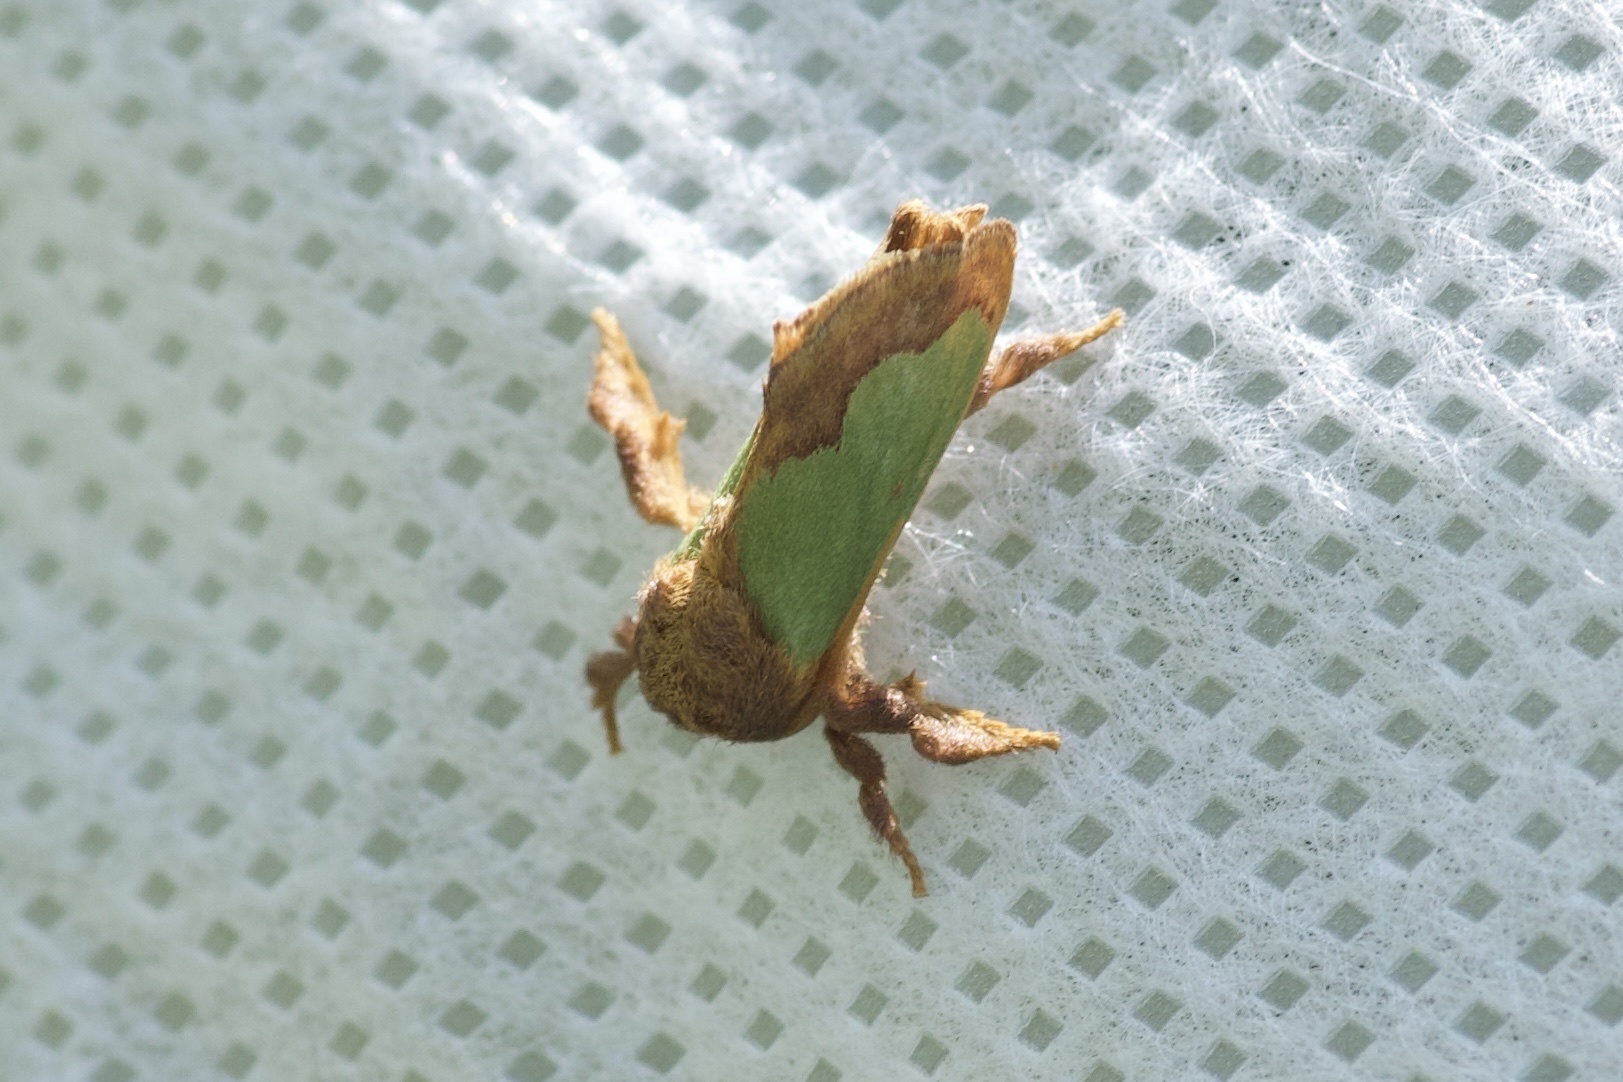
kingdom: Animalia
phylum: Arthropoda
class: Insecta
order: Lepidoptera
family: Limacodidae
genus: Euclea
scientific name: Euclea incisa
